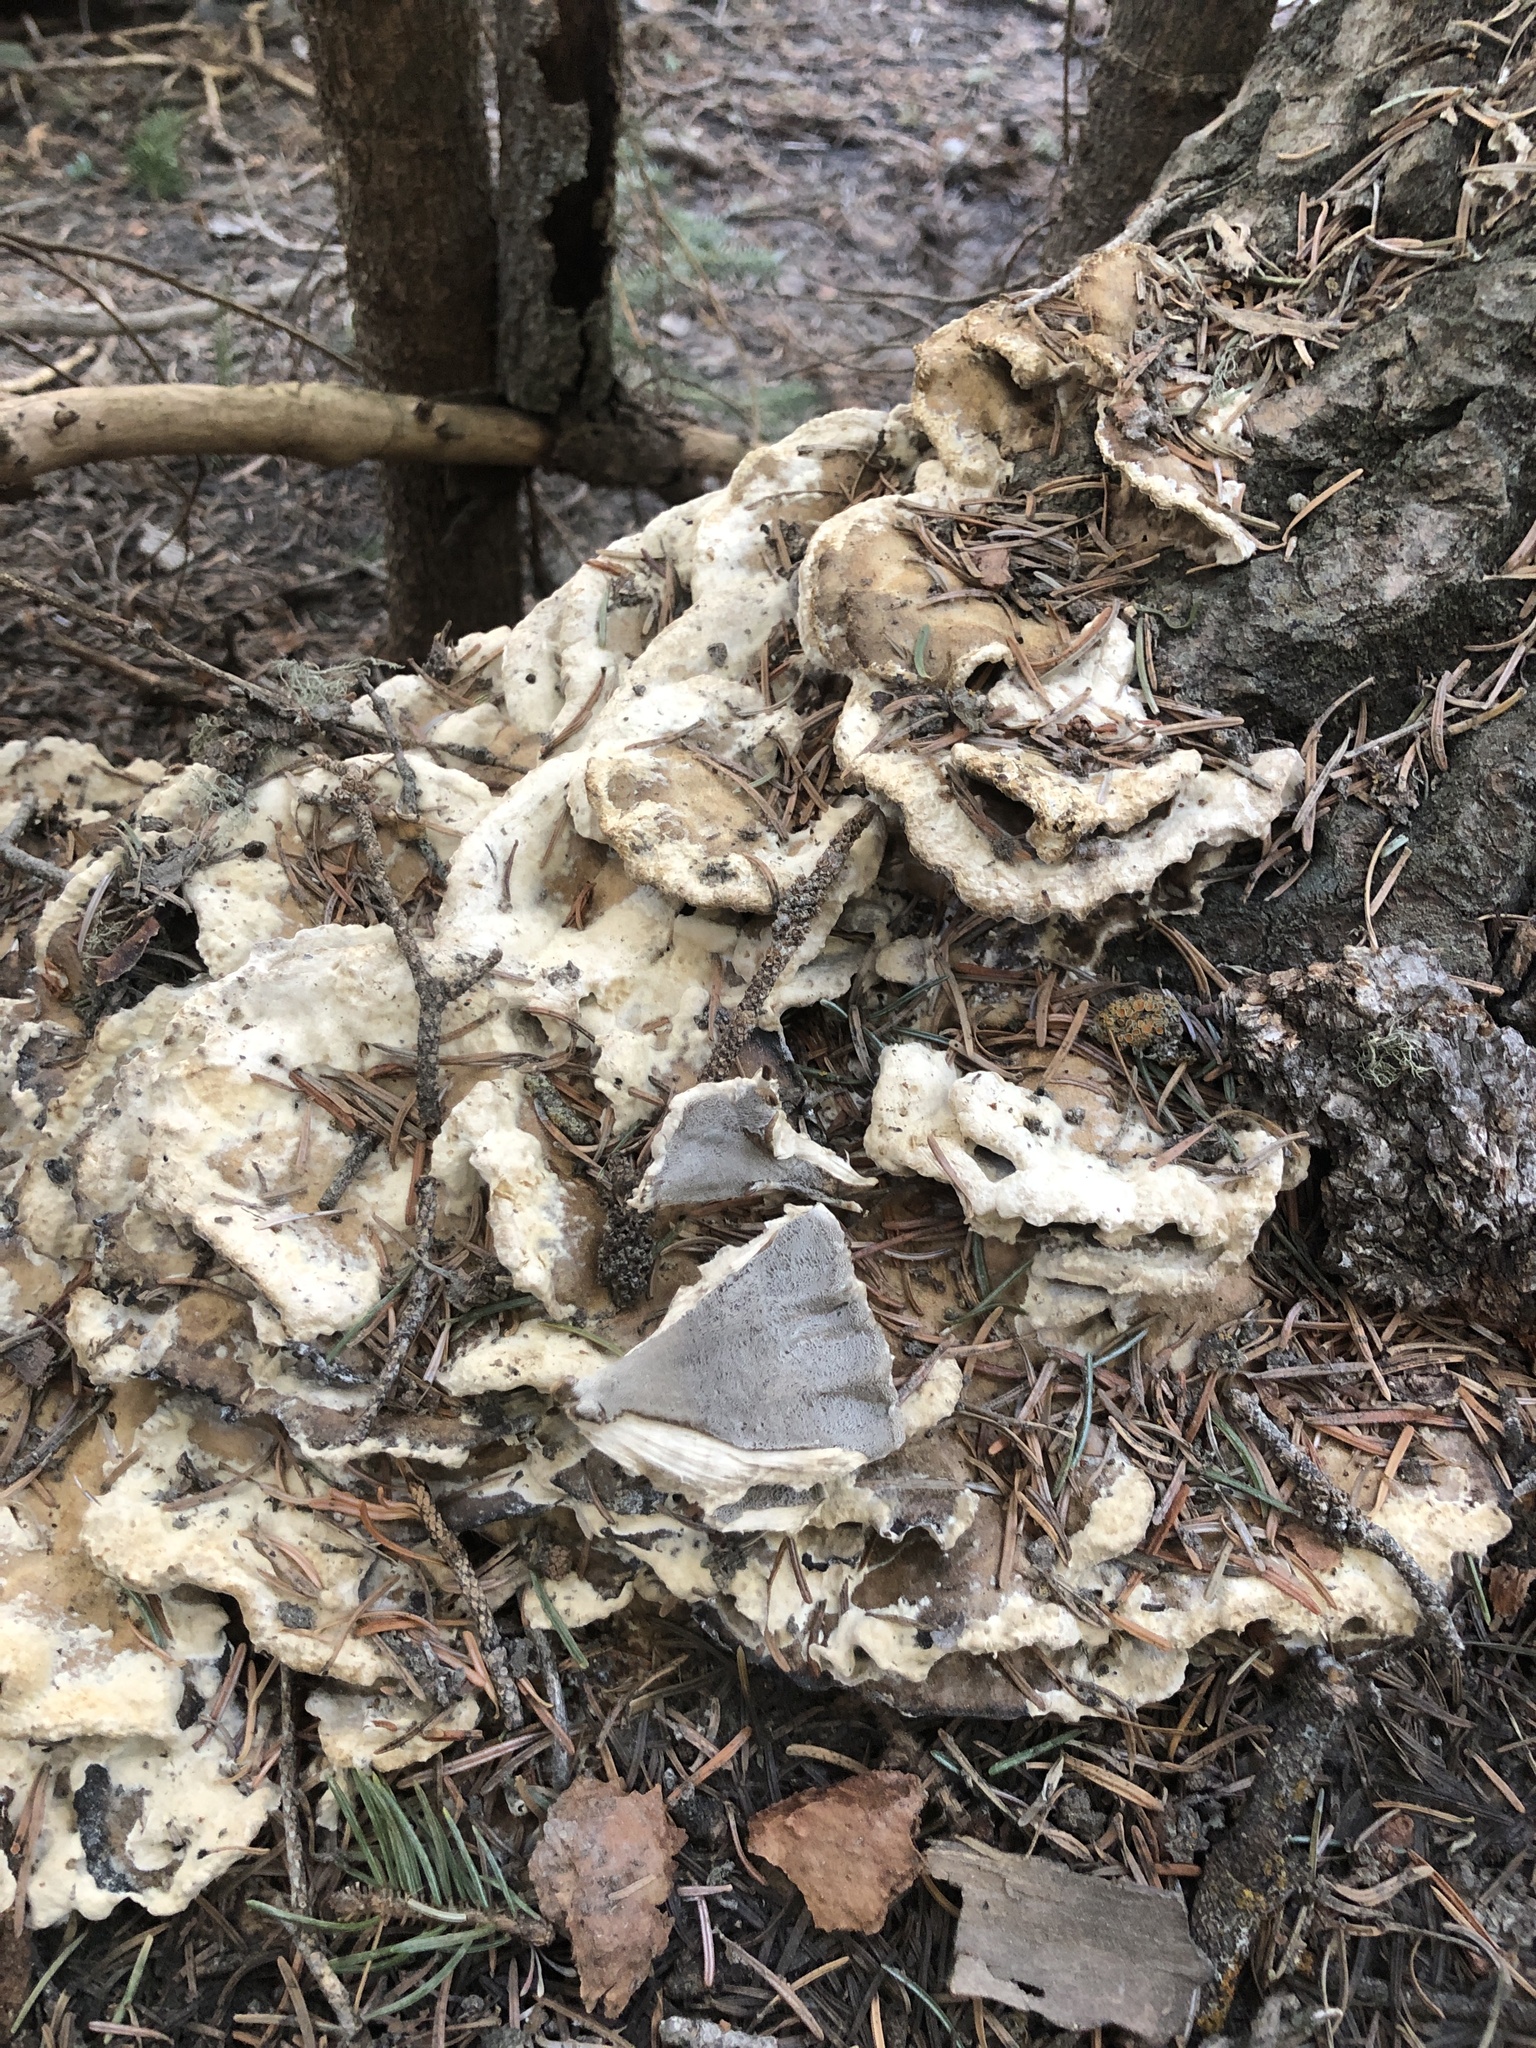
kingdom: Fungi
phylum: Basidiomycota
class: Agaricomycetes
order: Polyporales
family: Phanerochaetaceae
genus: Bjerkandera
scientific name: Bjerkandera adusta
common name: Smoky bracket
